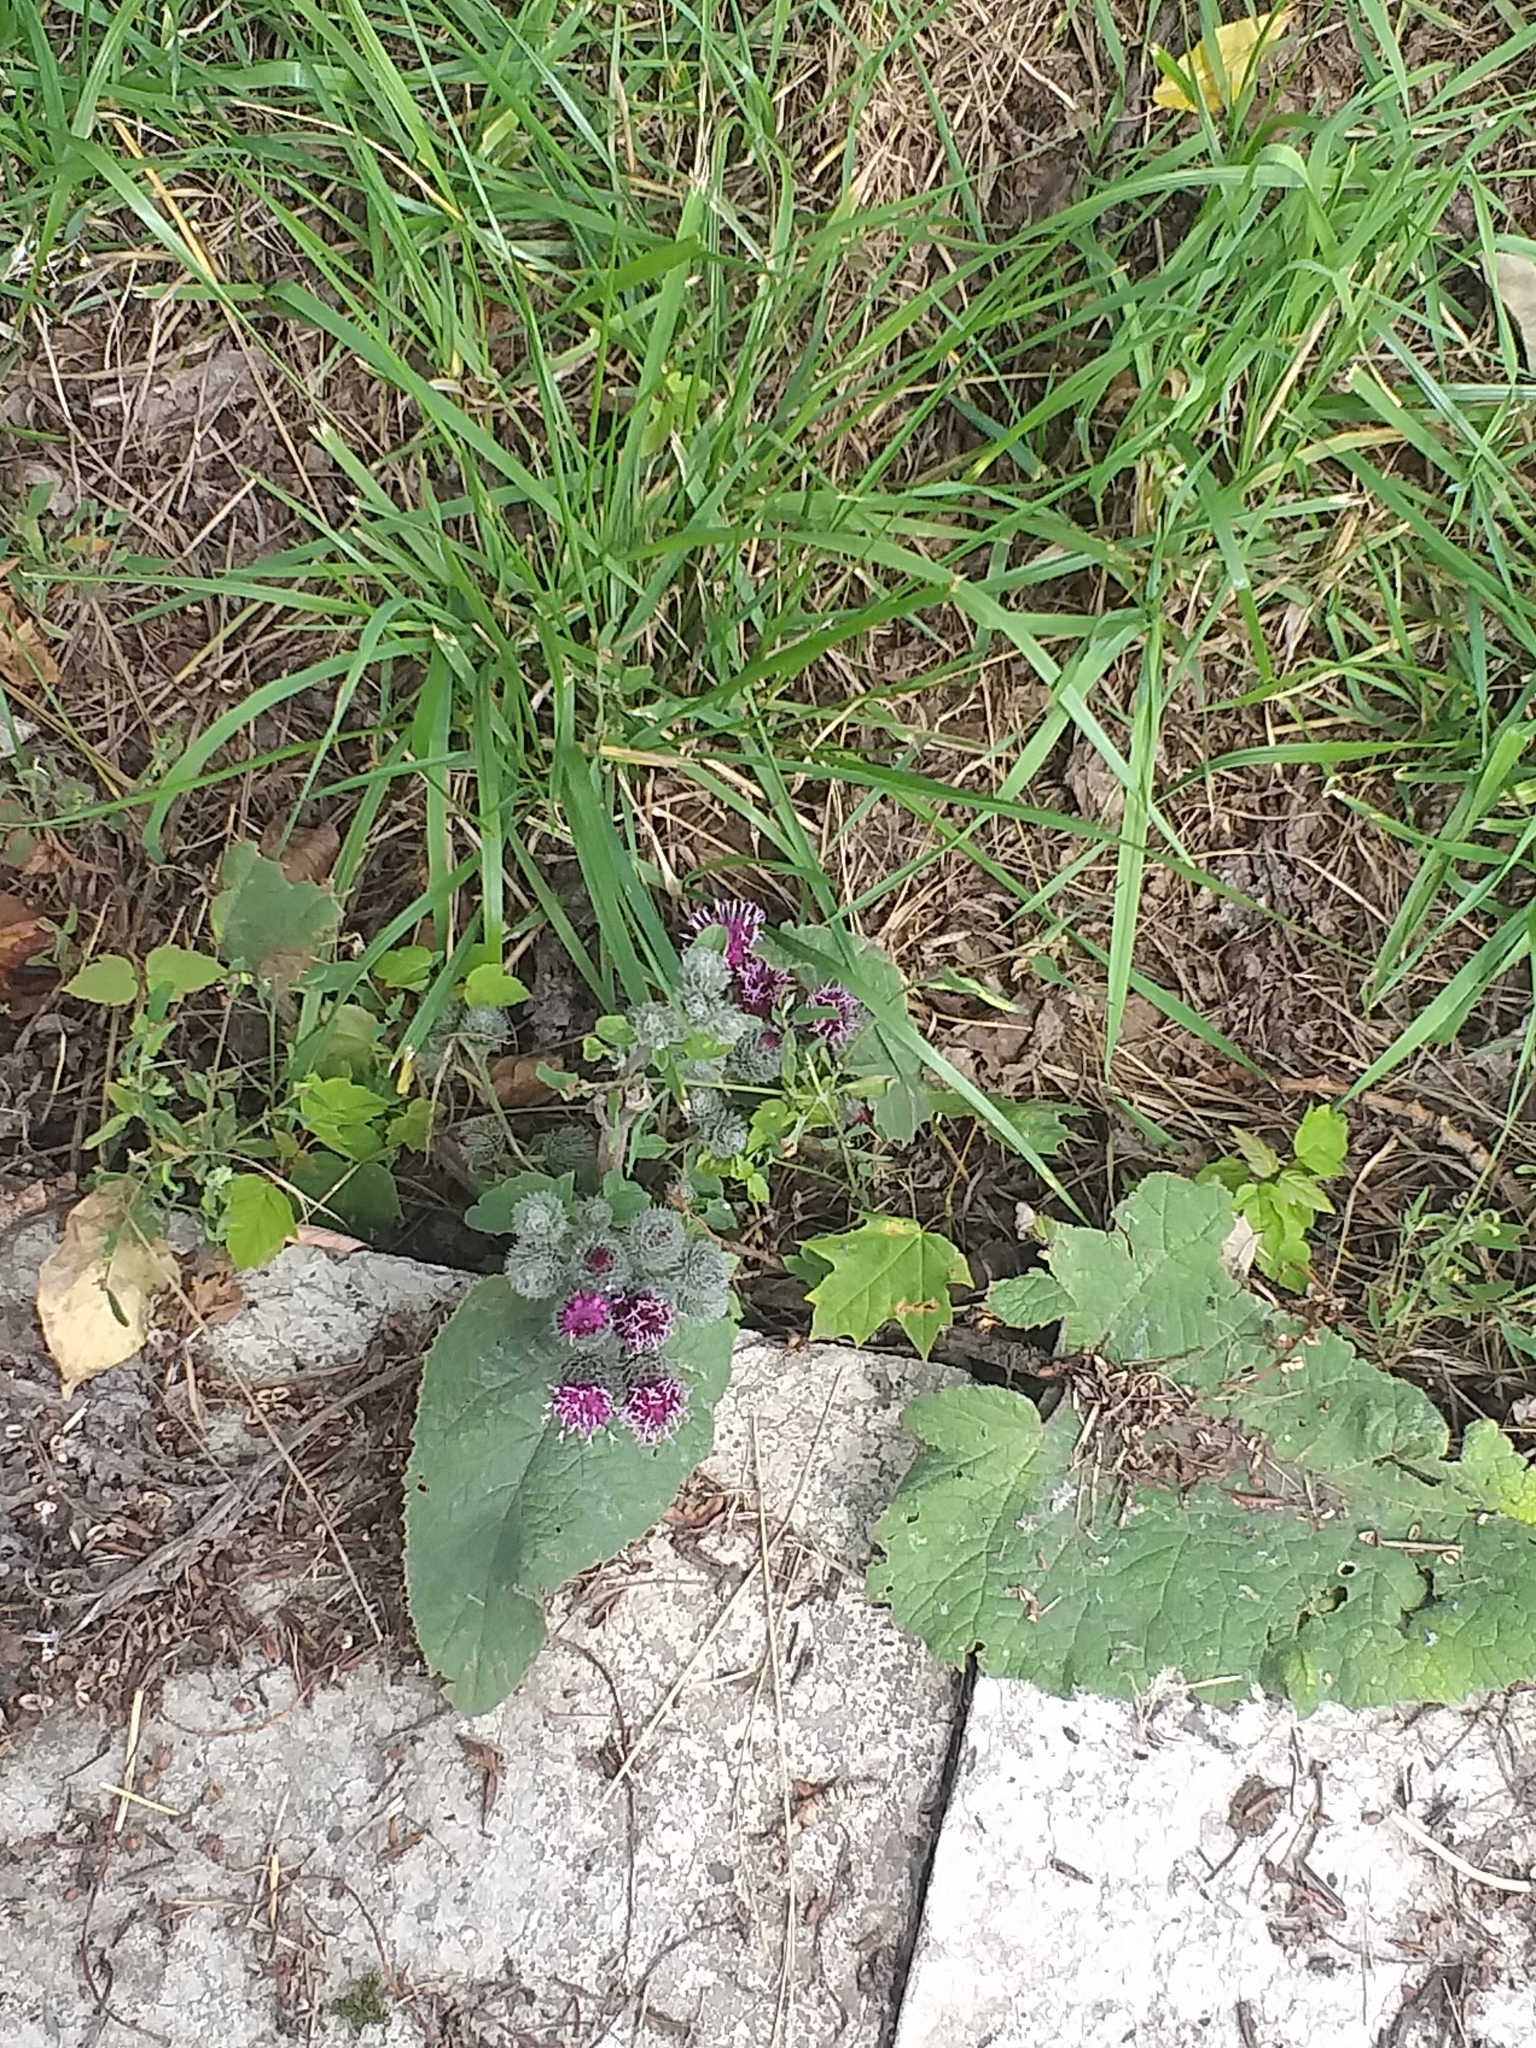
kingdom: Plantae
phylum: Tracheophyta
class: Magnoliopsida
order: Asterales
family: Asteraceae
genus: Arctium
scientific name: Arctium tomentosum
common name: Woolly burdock
